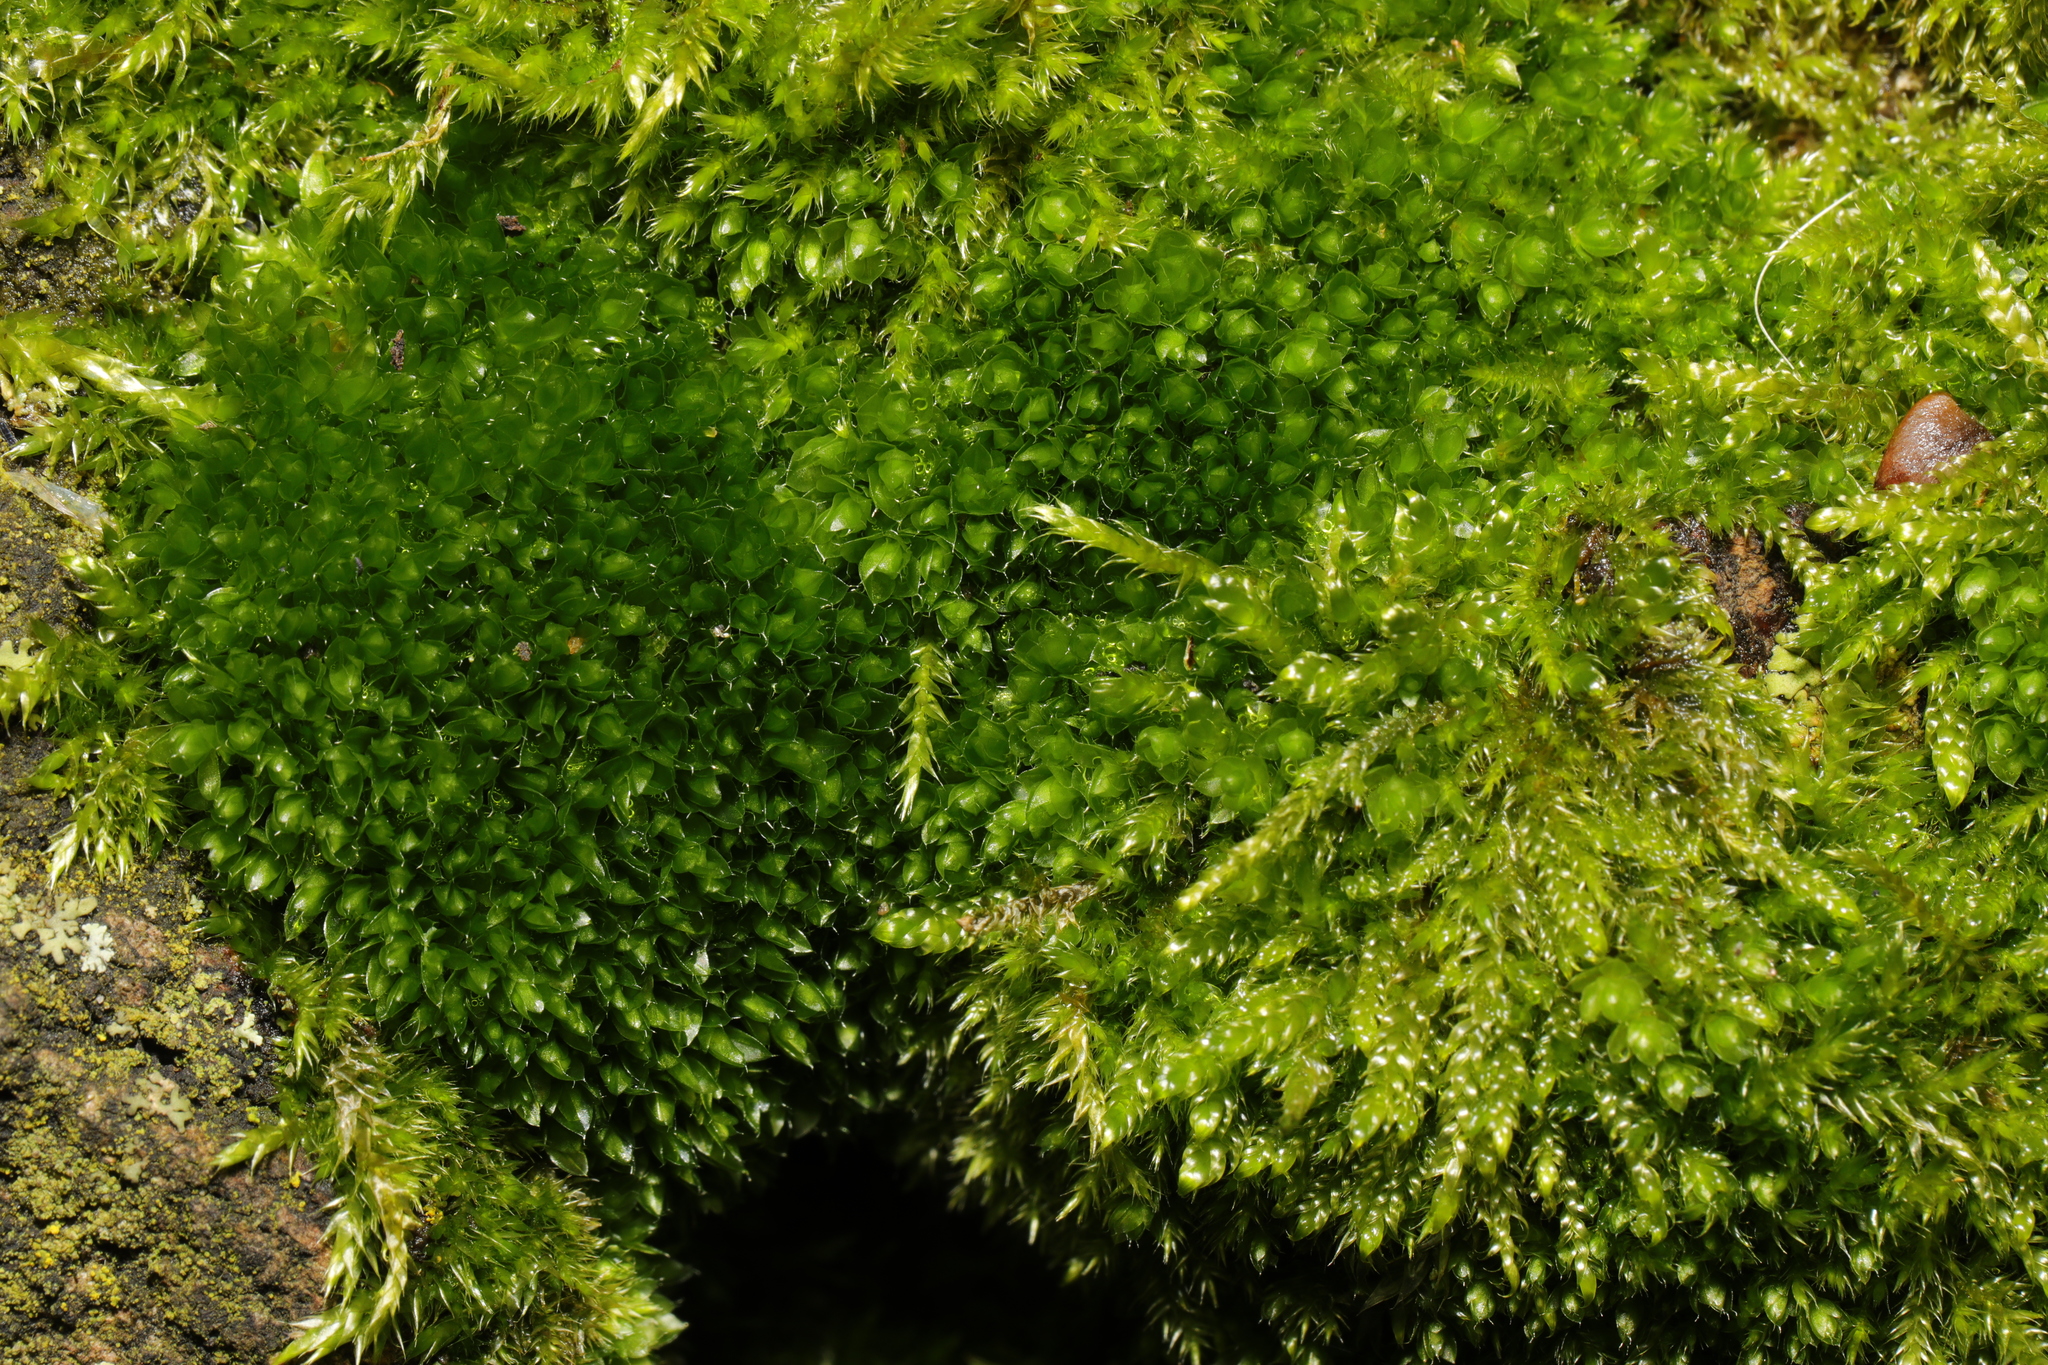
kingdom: Plantae
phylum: Bryophyta
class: Bryopsida
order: Bryales
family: Bryaceae
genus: Rosulabryum
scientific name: Rosulabryum capillare
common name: Capillary thread-moss
